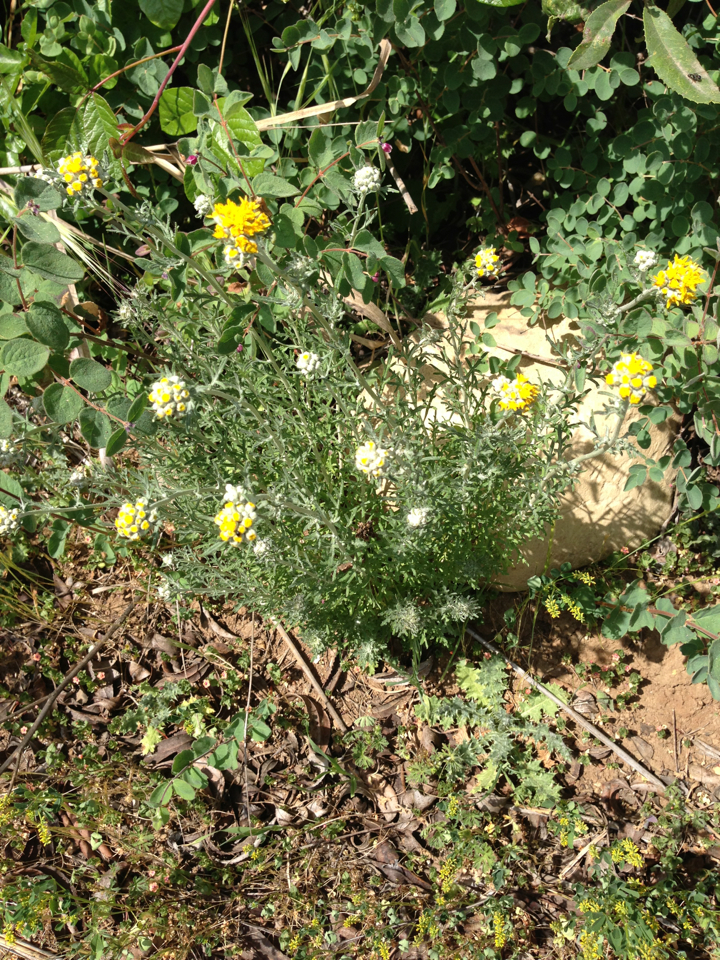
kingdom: Plantae
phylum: Tracheophyta
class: Magnoliopsida
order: Asterales
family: Asteraceae
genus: Eriophyllum
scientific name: Eriophyllum confertiflorum
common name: Golden-yarrow
